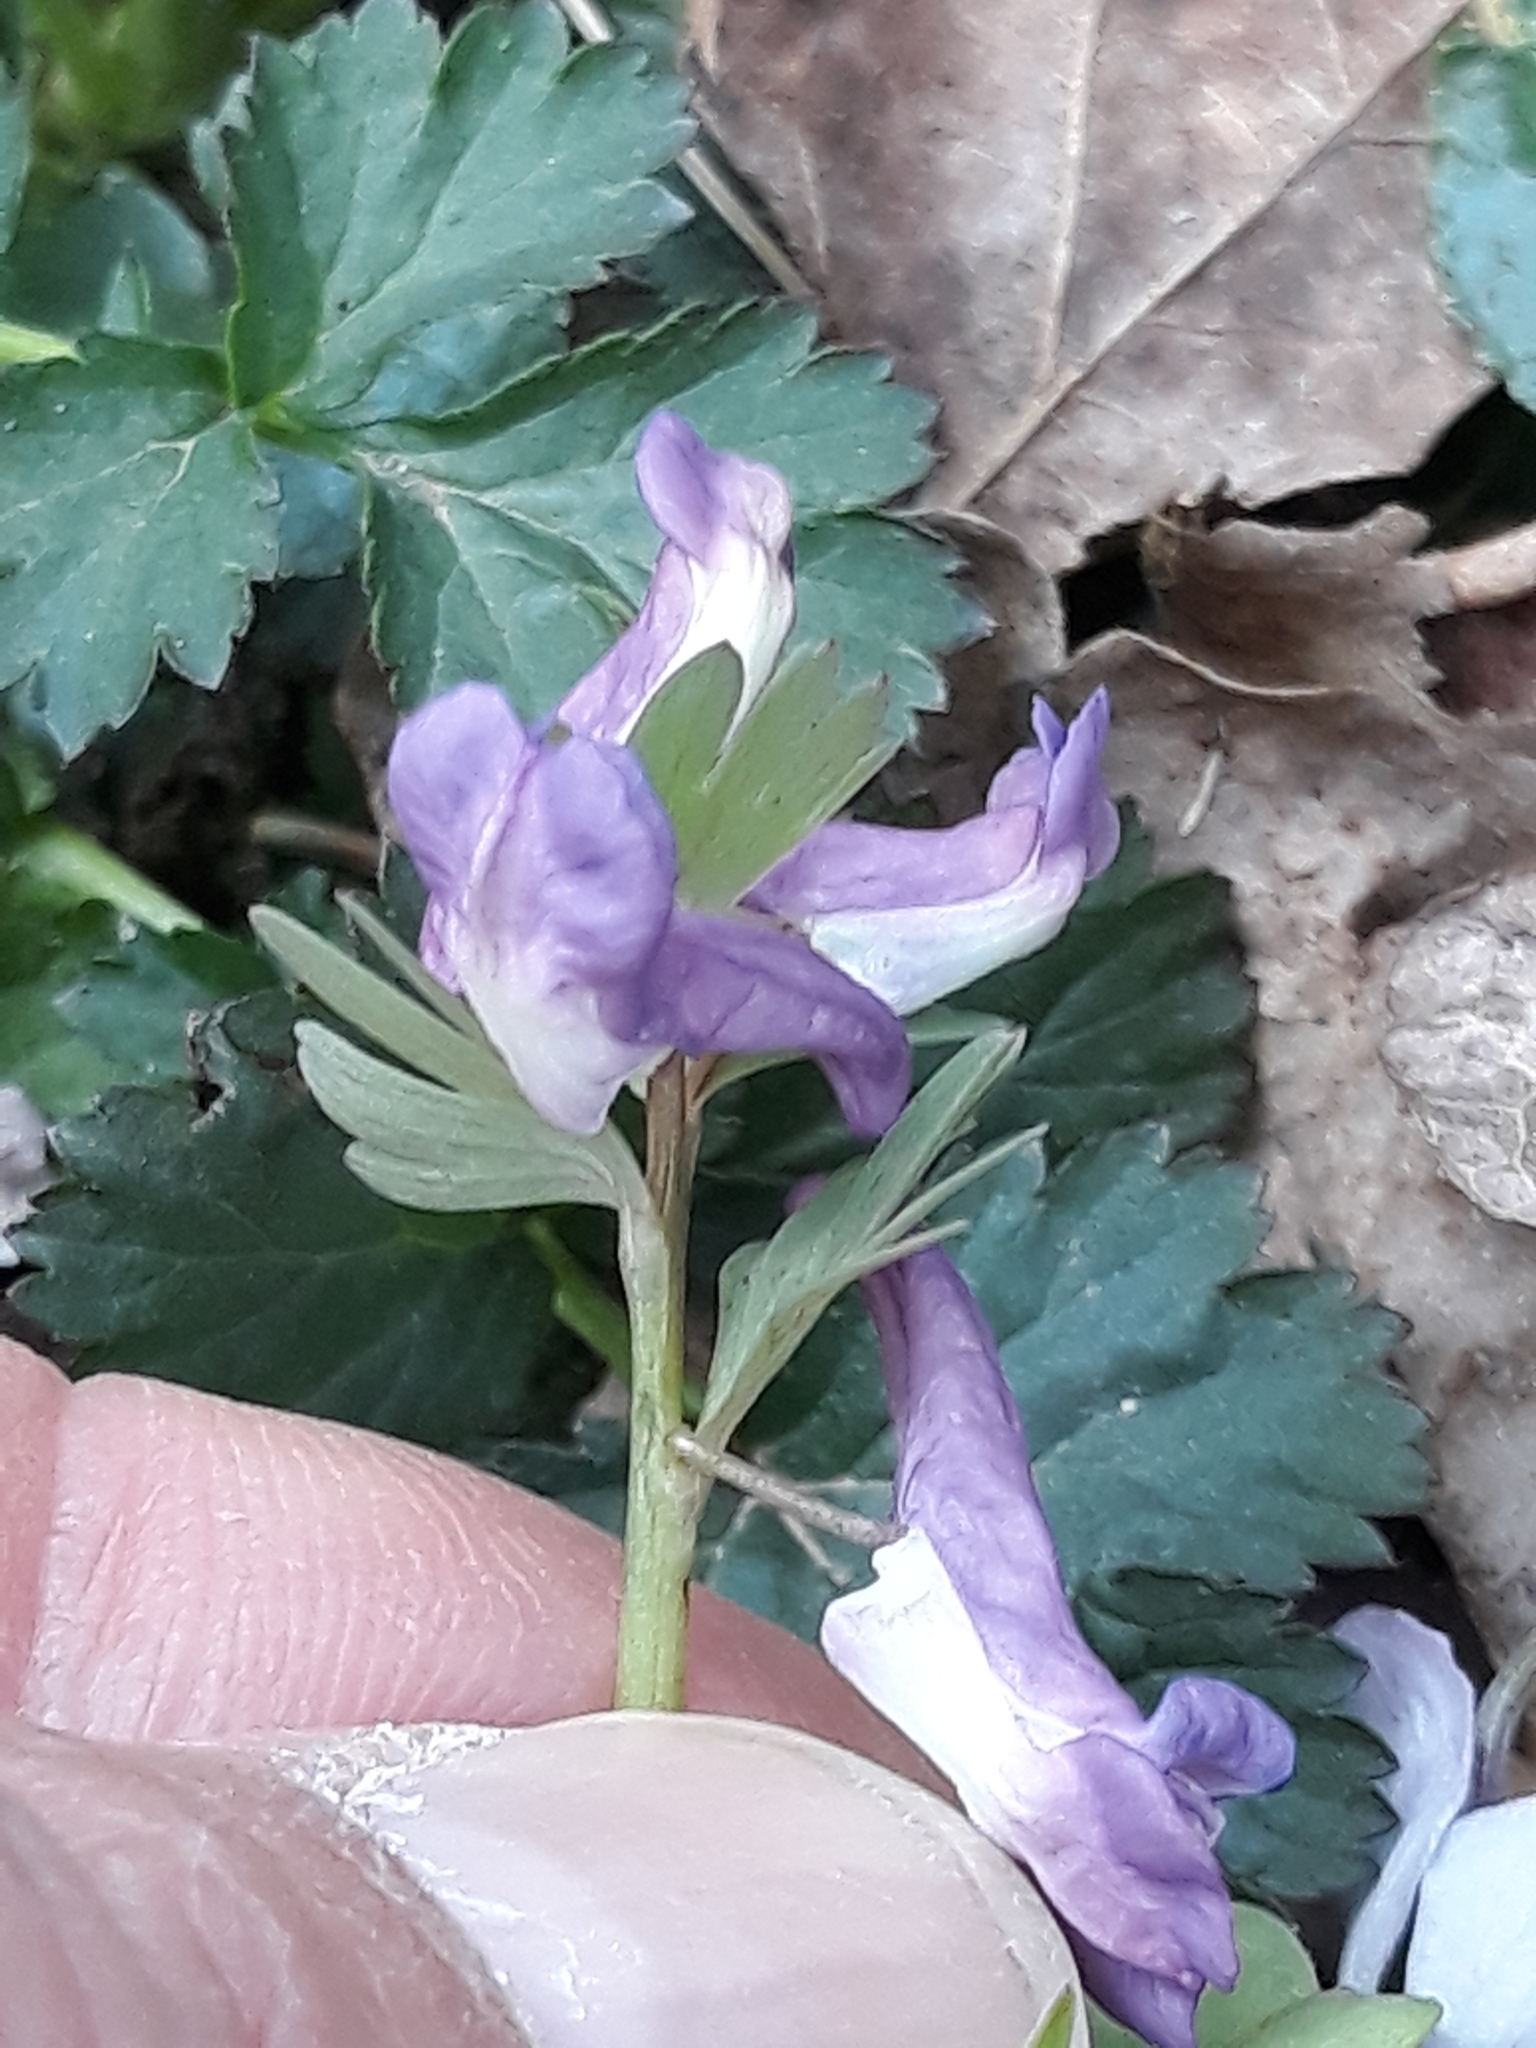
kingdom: Plantae
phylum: Tracheophyta
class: Magnoliopsida
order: Ranunculales
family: Papaveraceae
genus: Corydalis
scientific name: Corydalis solida
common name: Bird-in-a-bush
